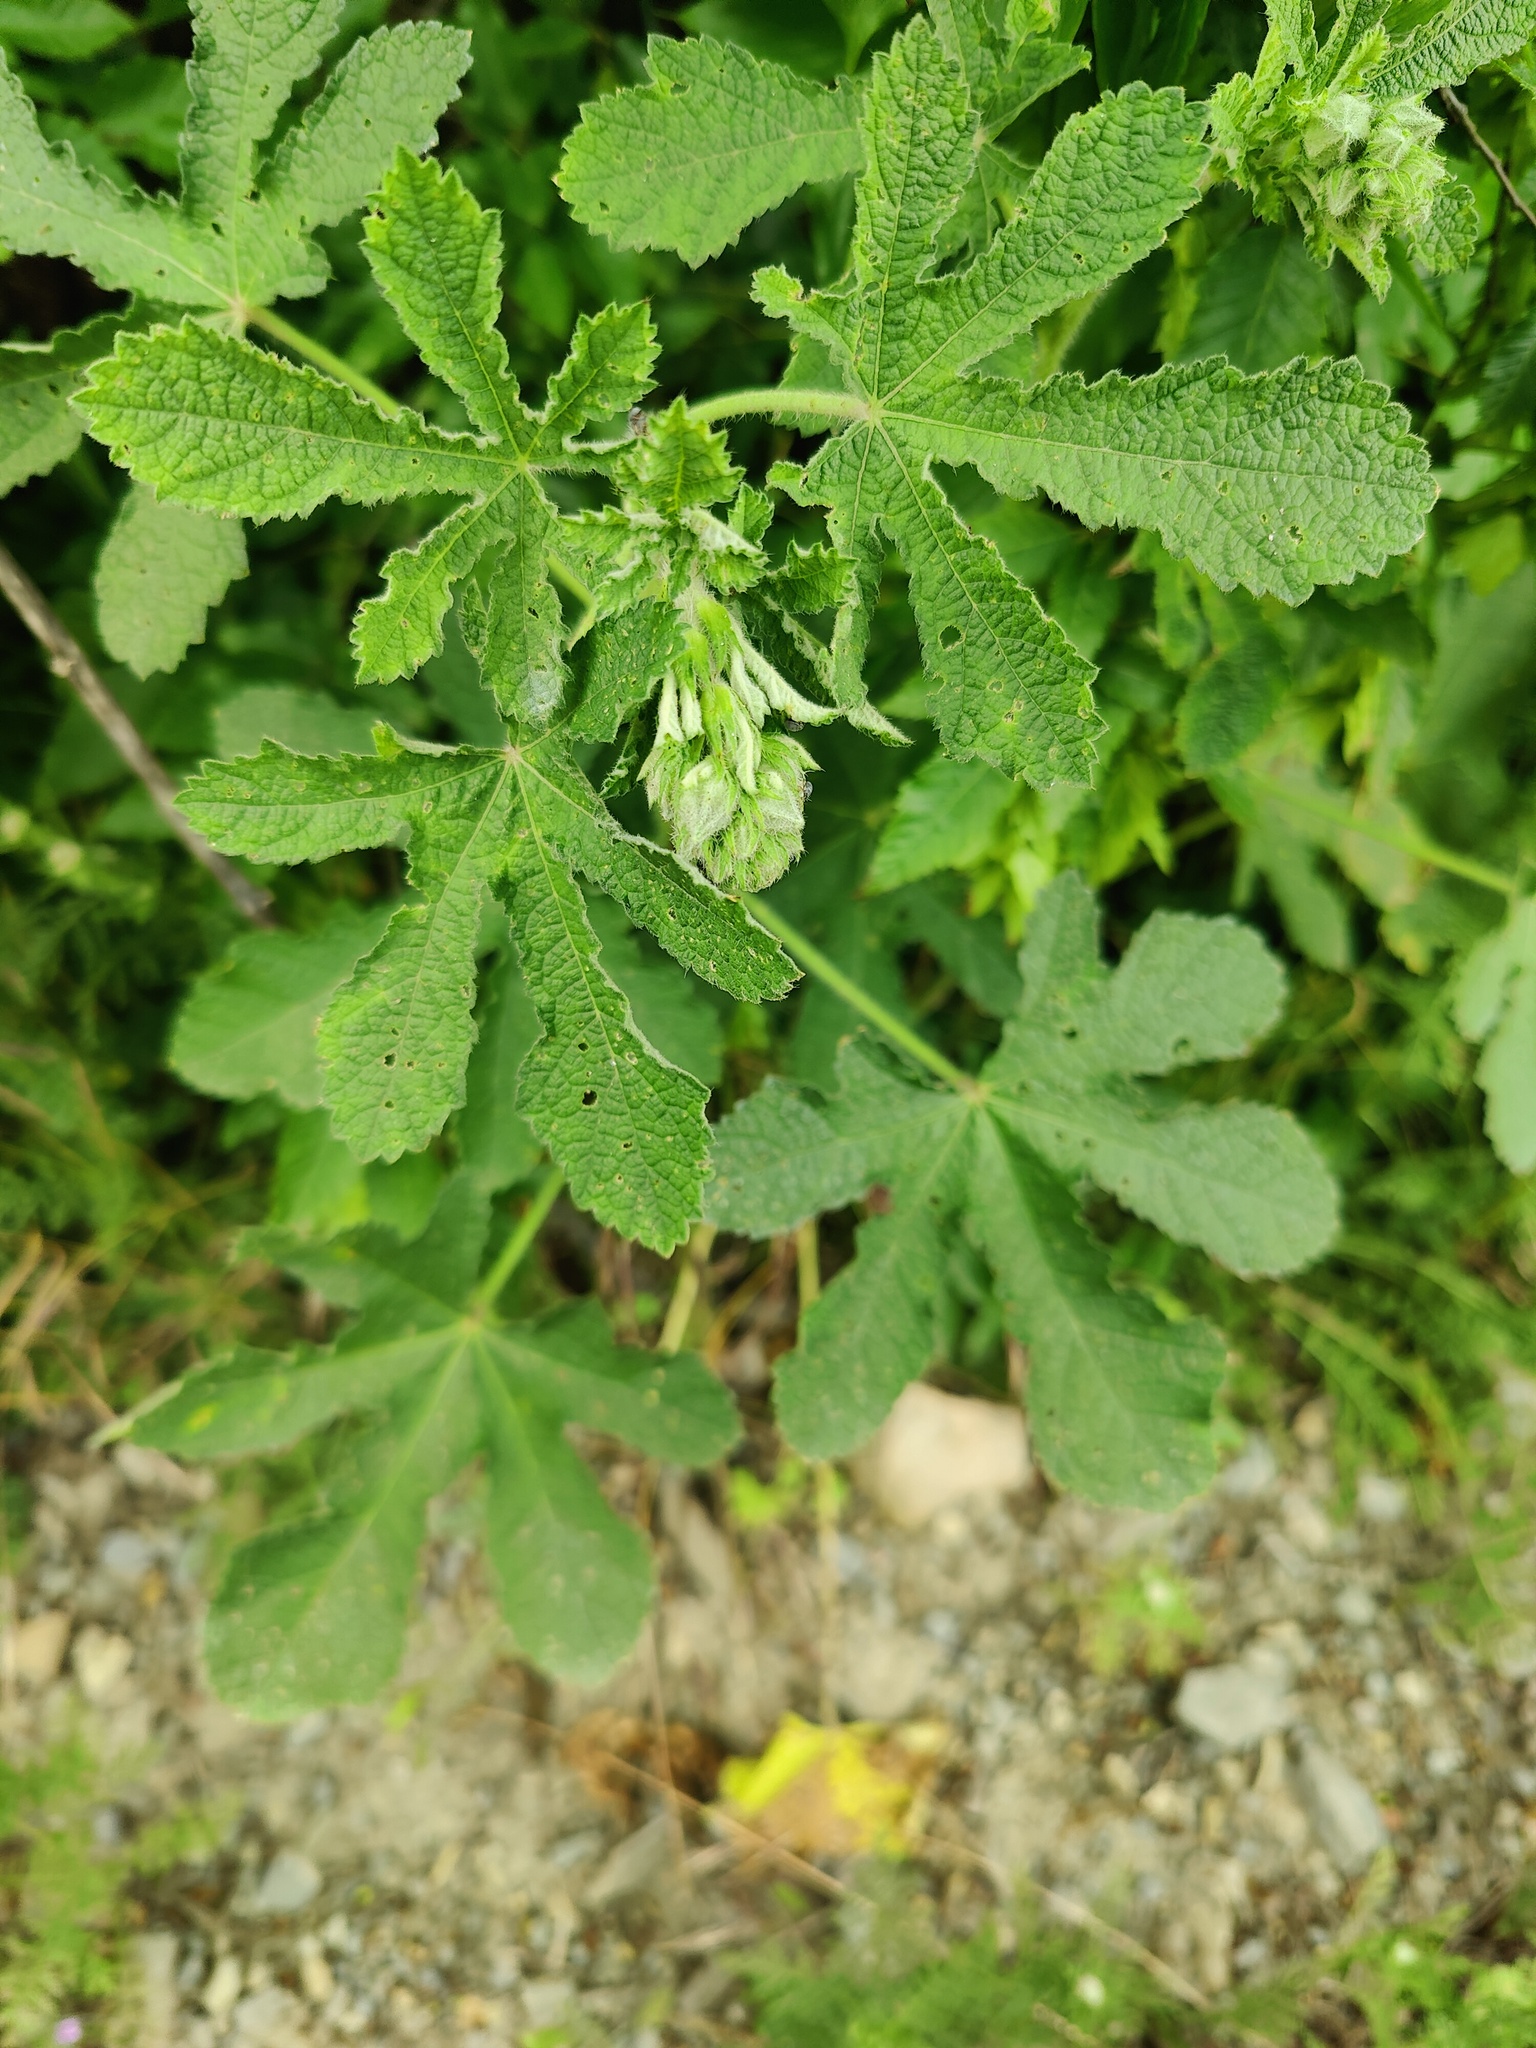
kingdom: Plantae
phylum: Tracheophyta
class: Magnoliopsida
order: Malvales
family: Malvaceae
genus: Alcea
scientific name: Alcea rugosa
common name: Russian hollyhock
